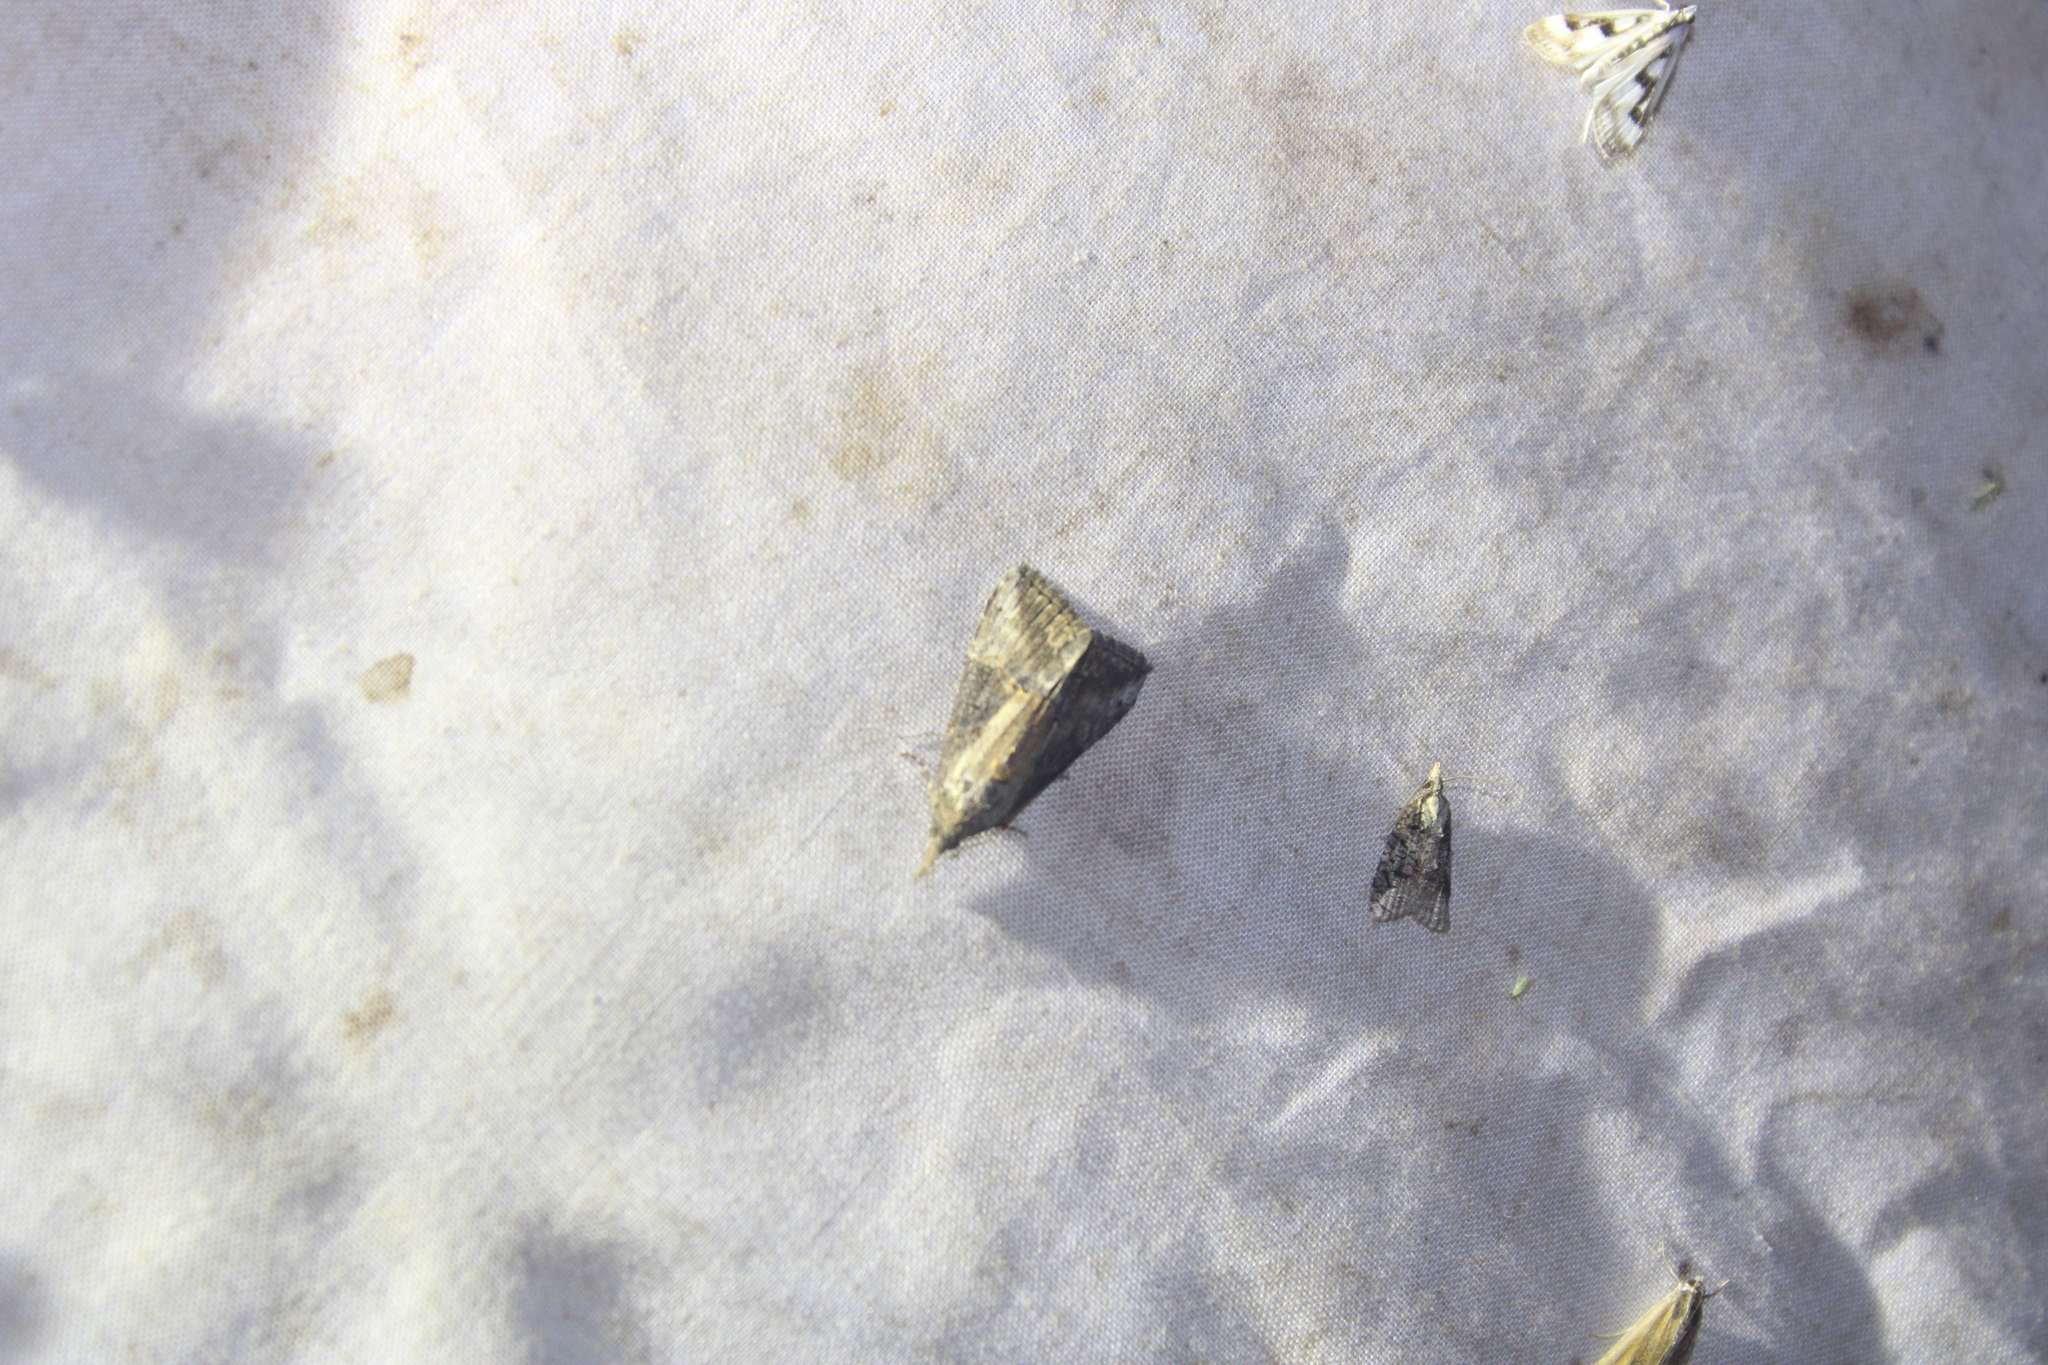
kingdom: Animalia
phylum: Arthropoda
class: Insecta
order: Lepidoptera
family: Erebidae
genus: Hypena
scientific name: Hypena scabra
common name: Green cloverworm
